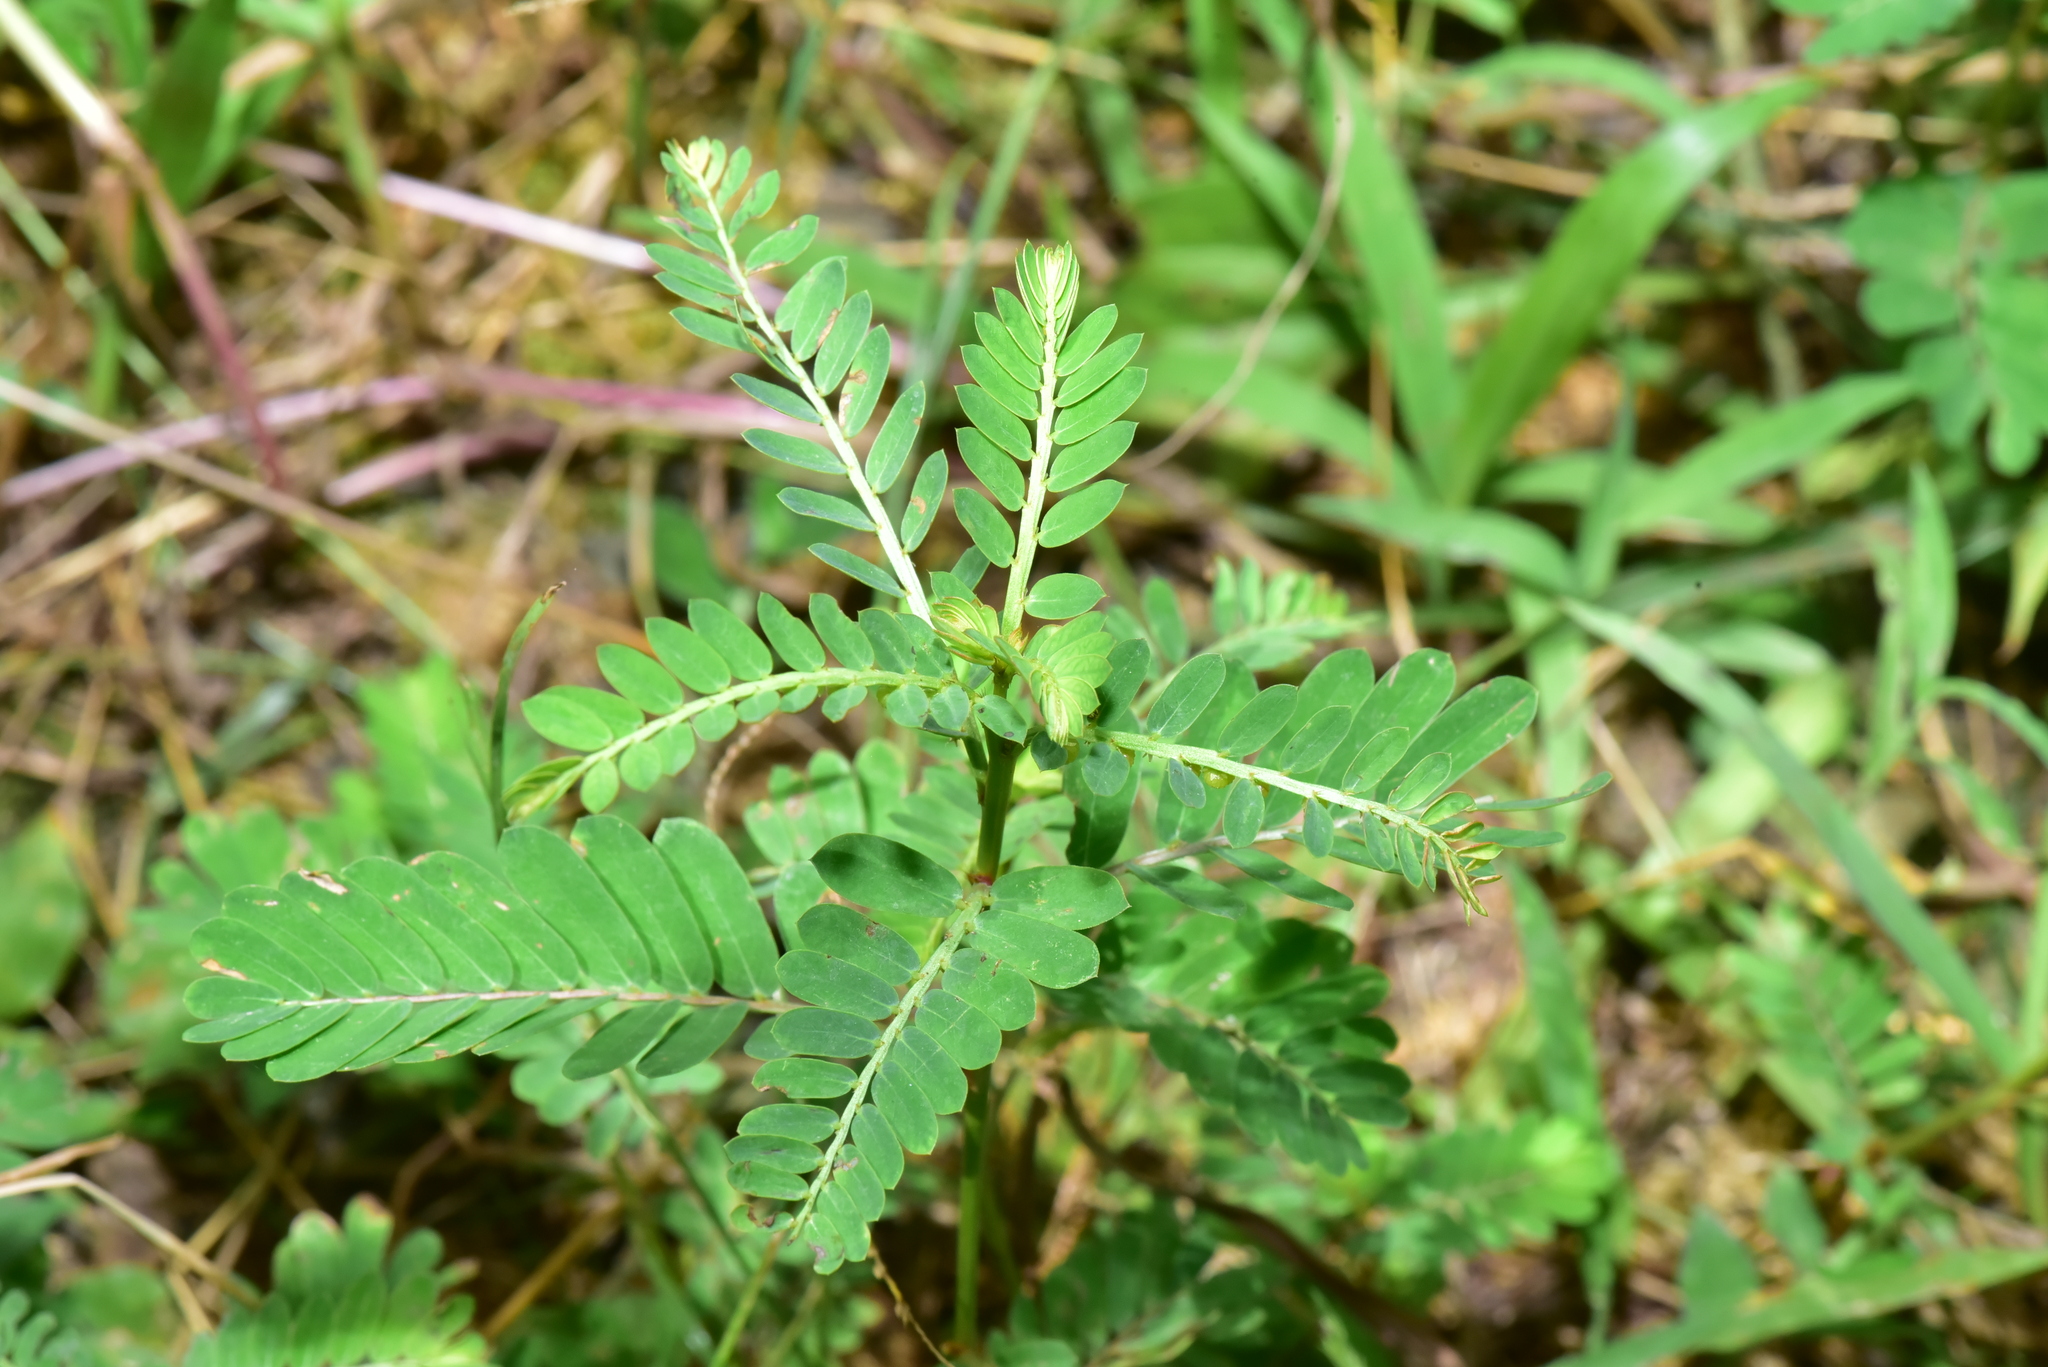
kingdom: Plantae
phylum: Tracheophyta
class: Magnoliopsida
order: Malpighiales
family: Phyllanthaceae
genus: Phyllanthus
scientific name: Phyllanthus urinaria
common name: Chamber bitter
